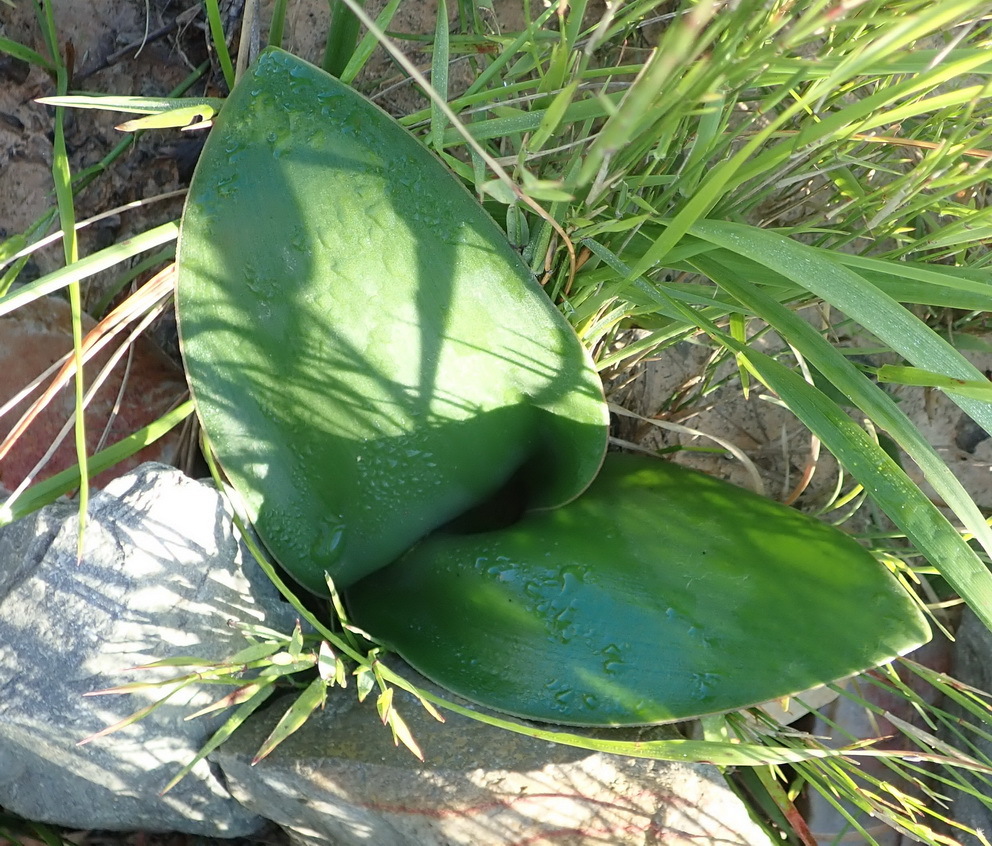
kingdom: Plantae
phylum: Tracheophyta
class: Liliopsida
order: Asparagales
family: Amaryllidaceae
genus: Brunsvigia
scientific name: Brunsvigia orientalis
